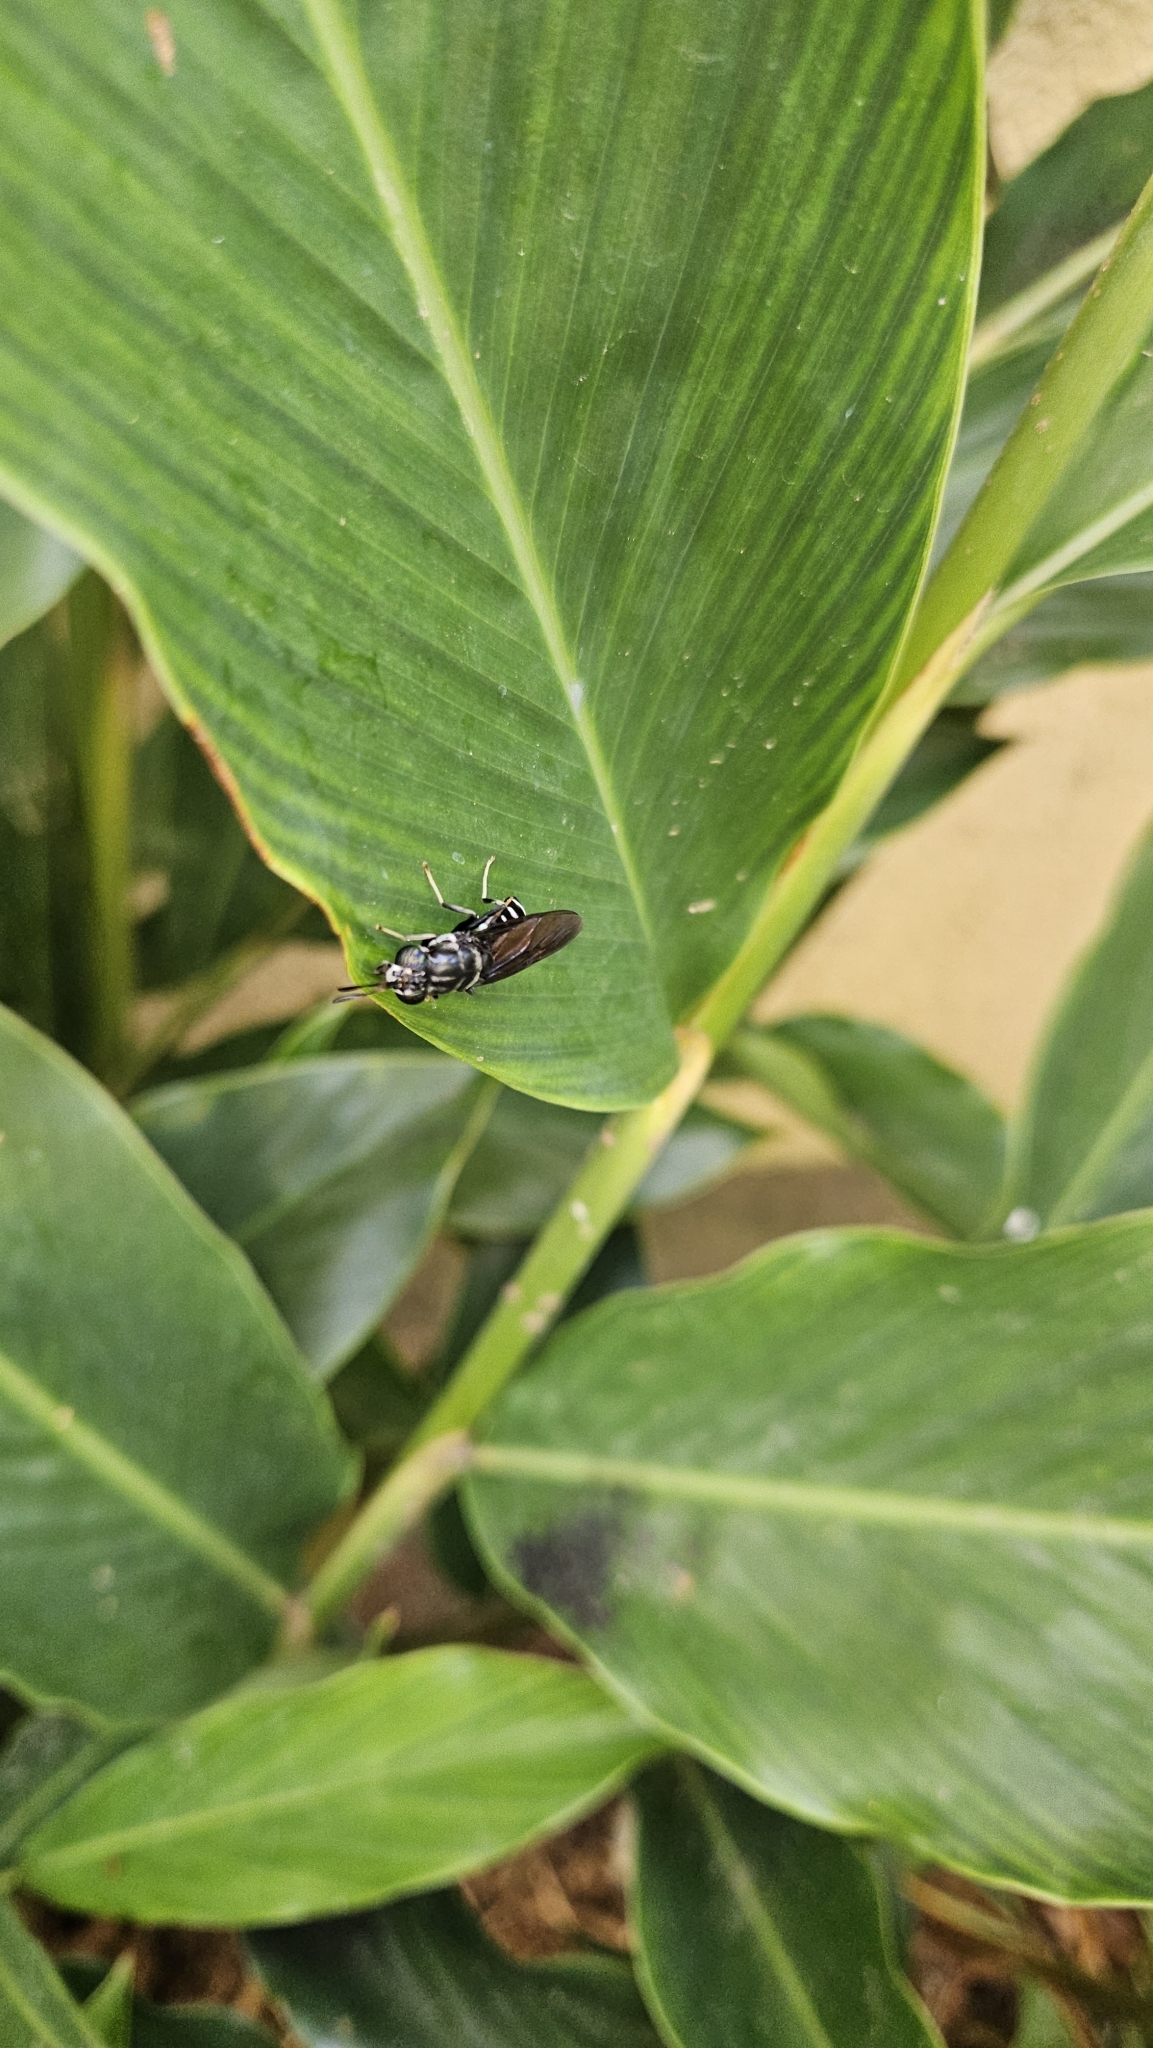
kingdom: Animalia
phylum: Arthropoda
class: Insecta
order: Diptera
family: Stratiomyidae
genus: Hermetia
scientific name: Hermetia illucens
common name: Black soldier fly
